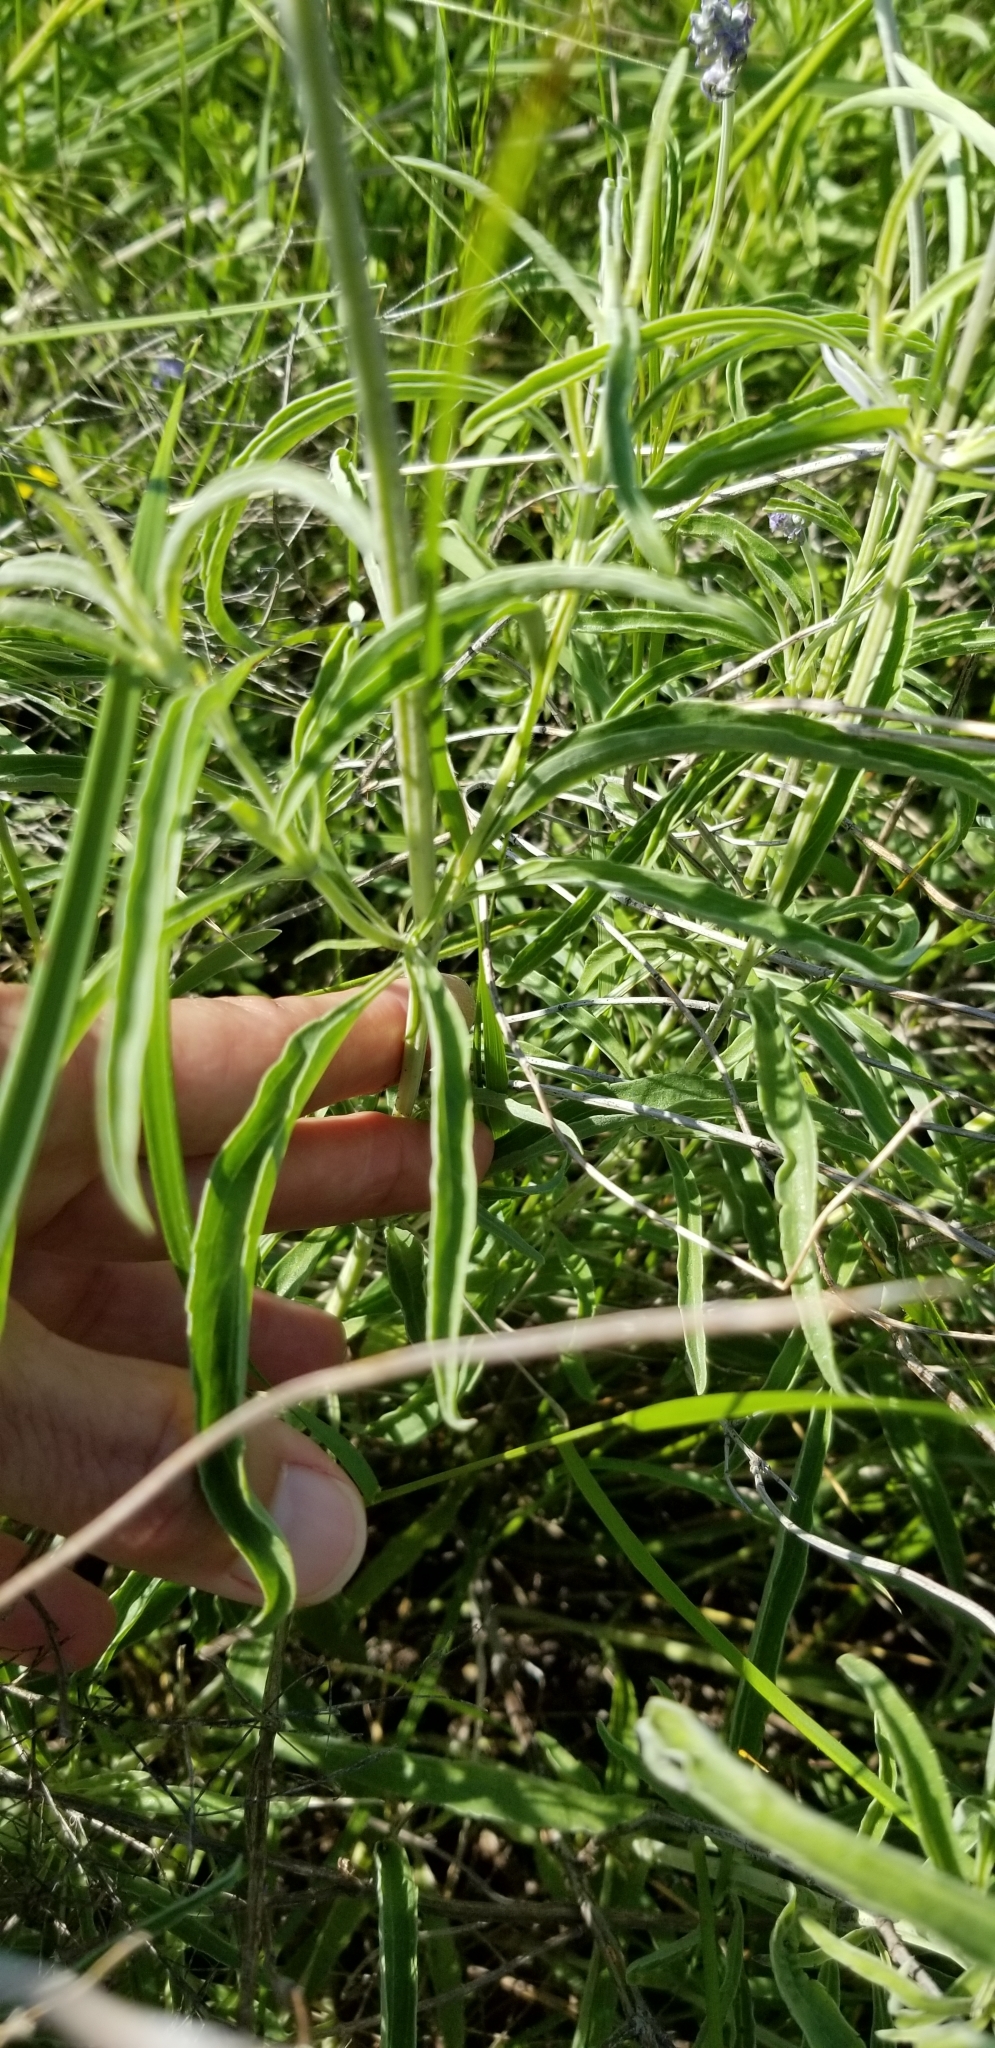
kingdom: Plantae
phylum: Tracheophyta
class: Magnoliopsida
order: Lamiales
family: Lamiaceae
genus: Salvia
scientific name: Salvia farinacea
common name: Mealy sage
